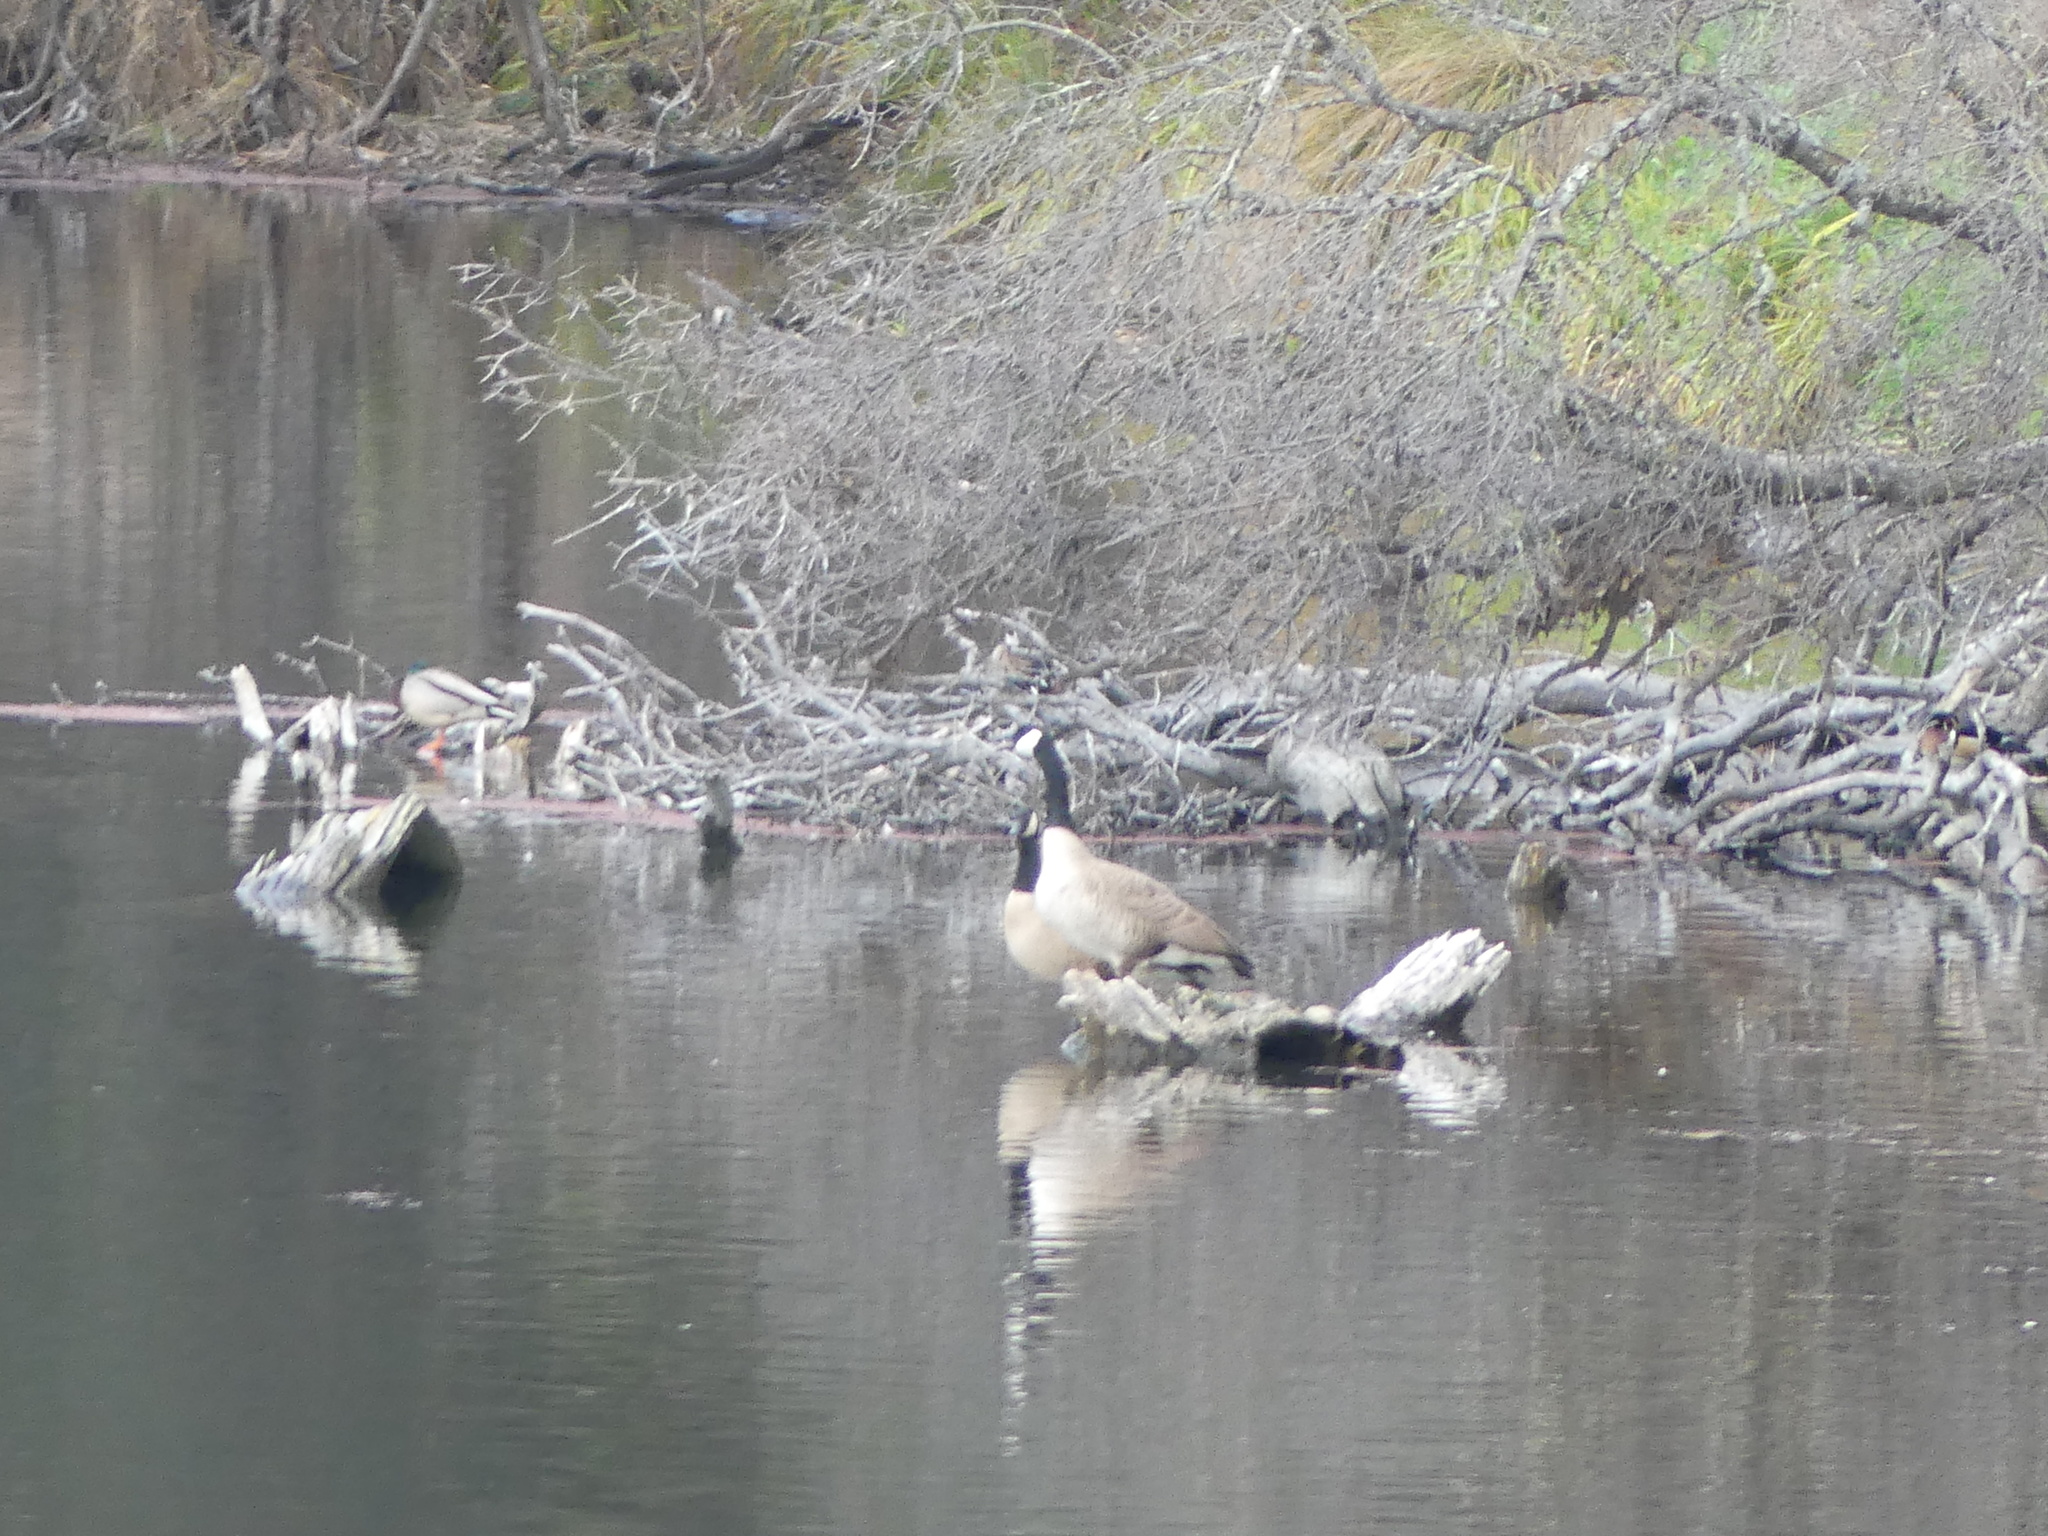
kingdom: Animalia
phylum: Chordata
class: Aves
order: Anseriformes
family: Anatidae
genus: Branta
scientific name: Branta canadensis
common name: Canada goose
